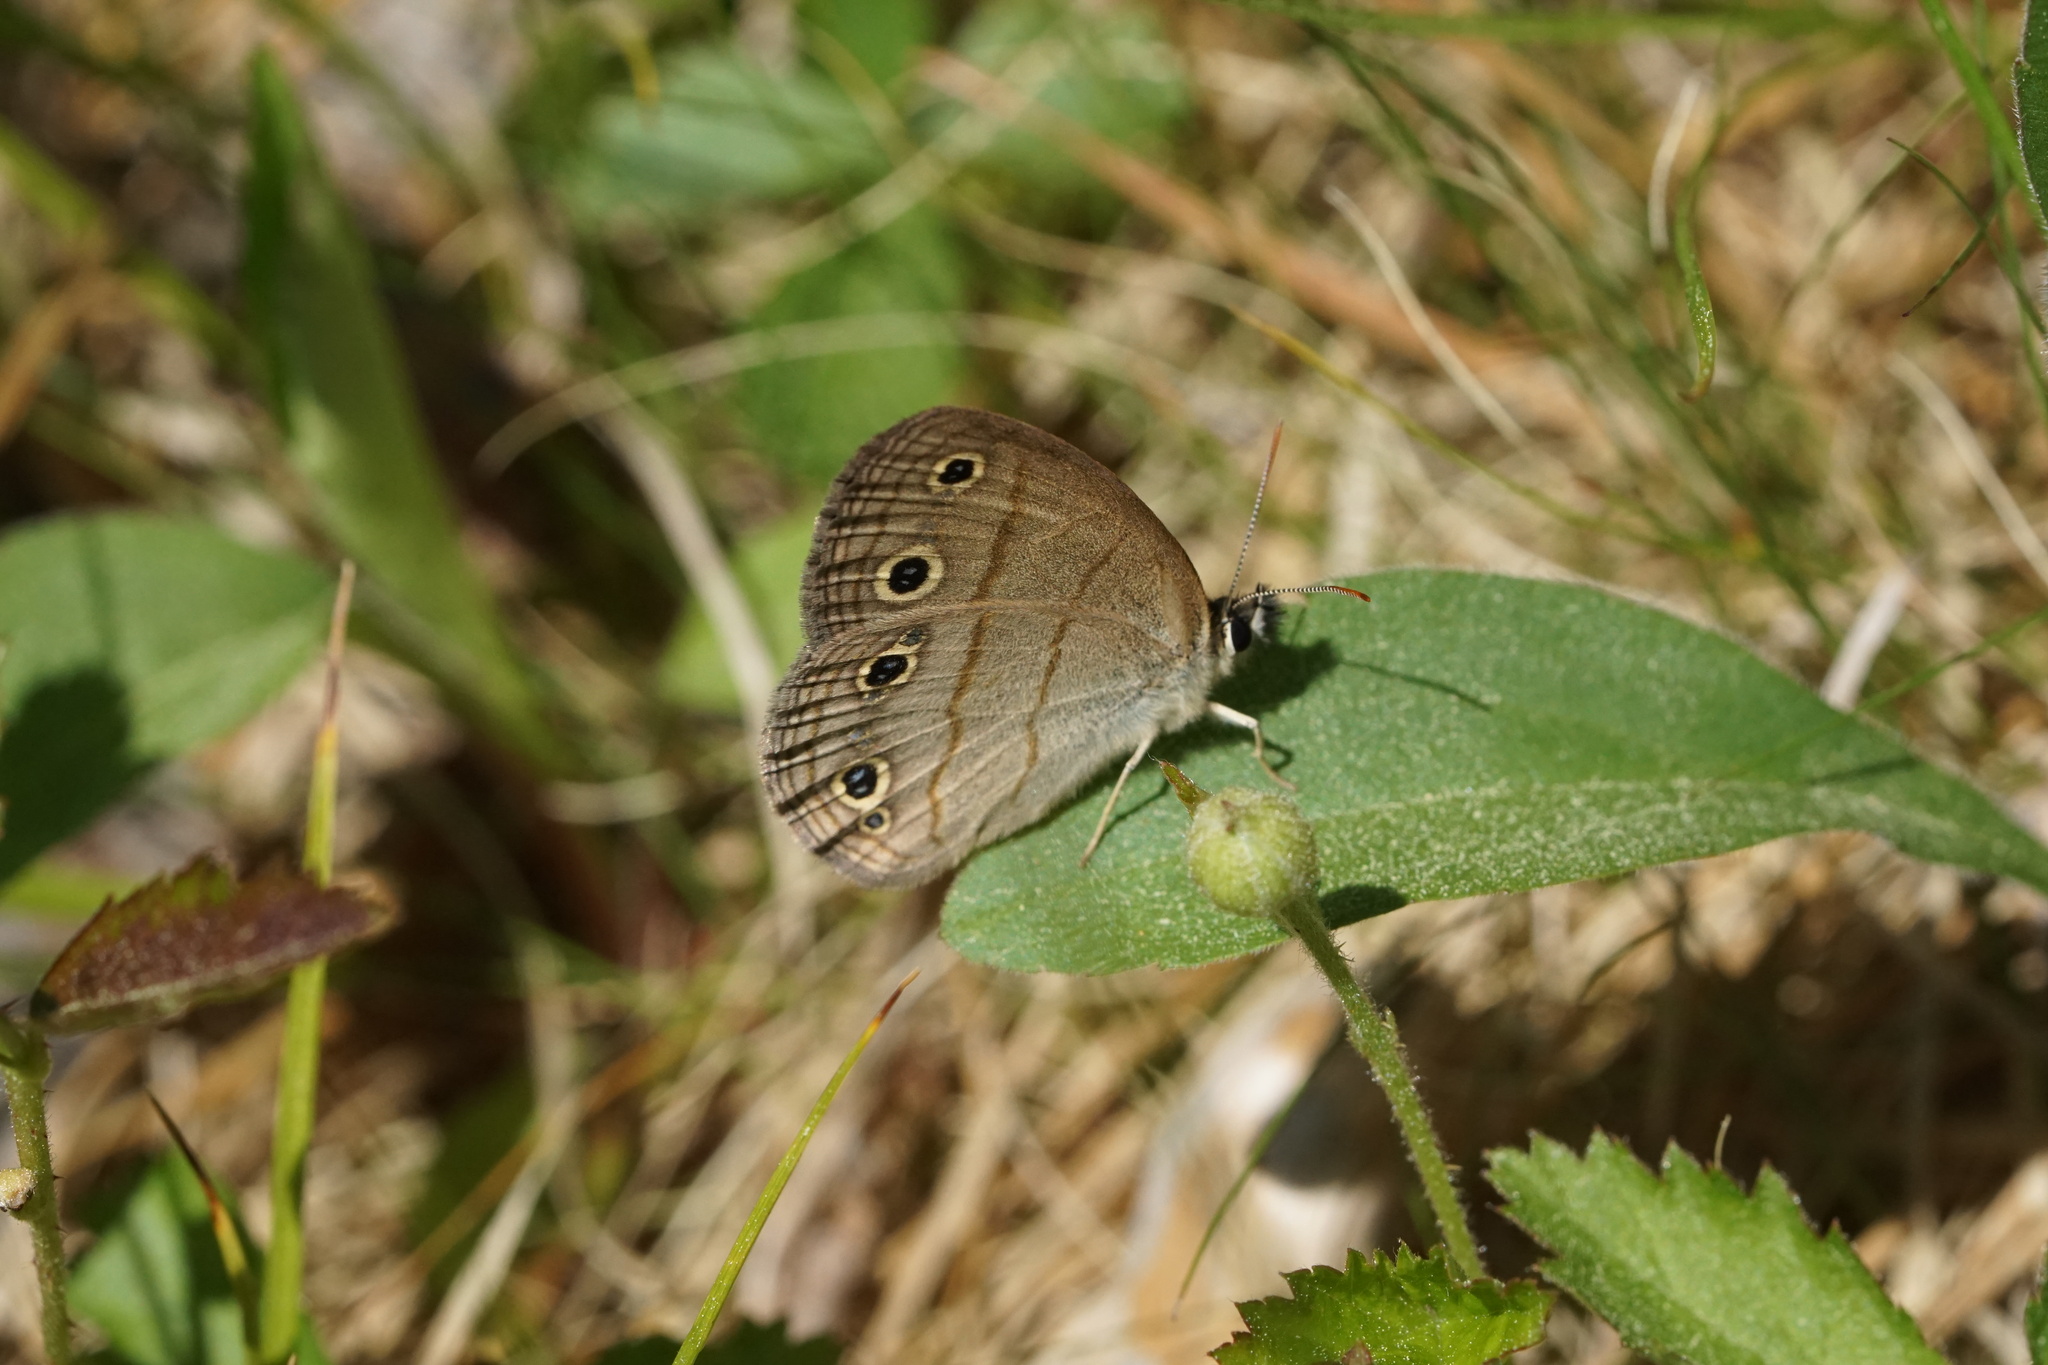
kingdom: Animalia
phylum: Arthropoda
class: Insecta
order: Lepidoptera
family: Nymphalidae
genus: Euptychia
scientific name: Euptychia cymela
